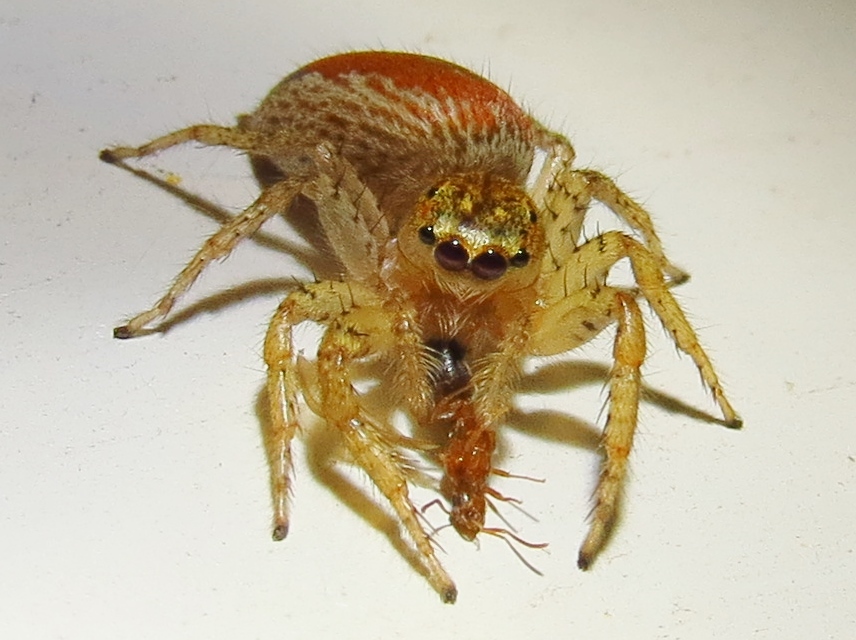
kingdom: Animalia
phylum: Arthropoda
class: Arachnida
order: Araneae
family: Salticidae
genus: Maevia
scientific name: Maevia inclemens
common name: Dimorphic jumper
